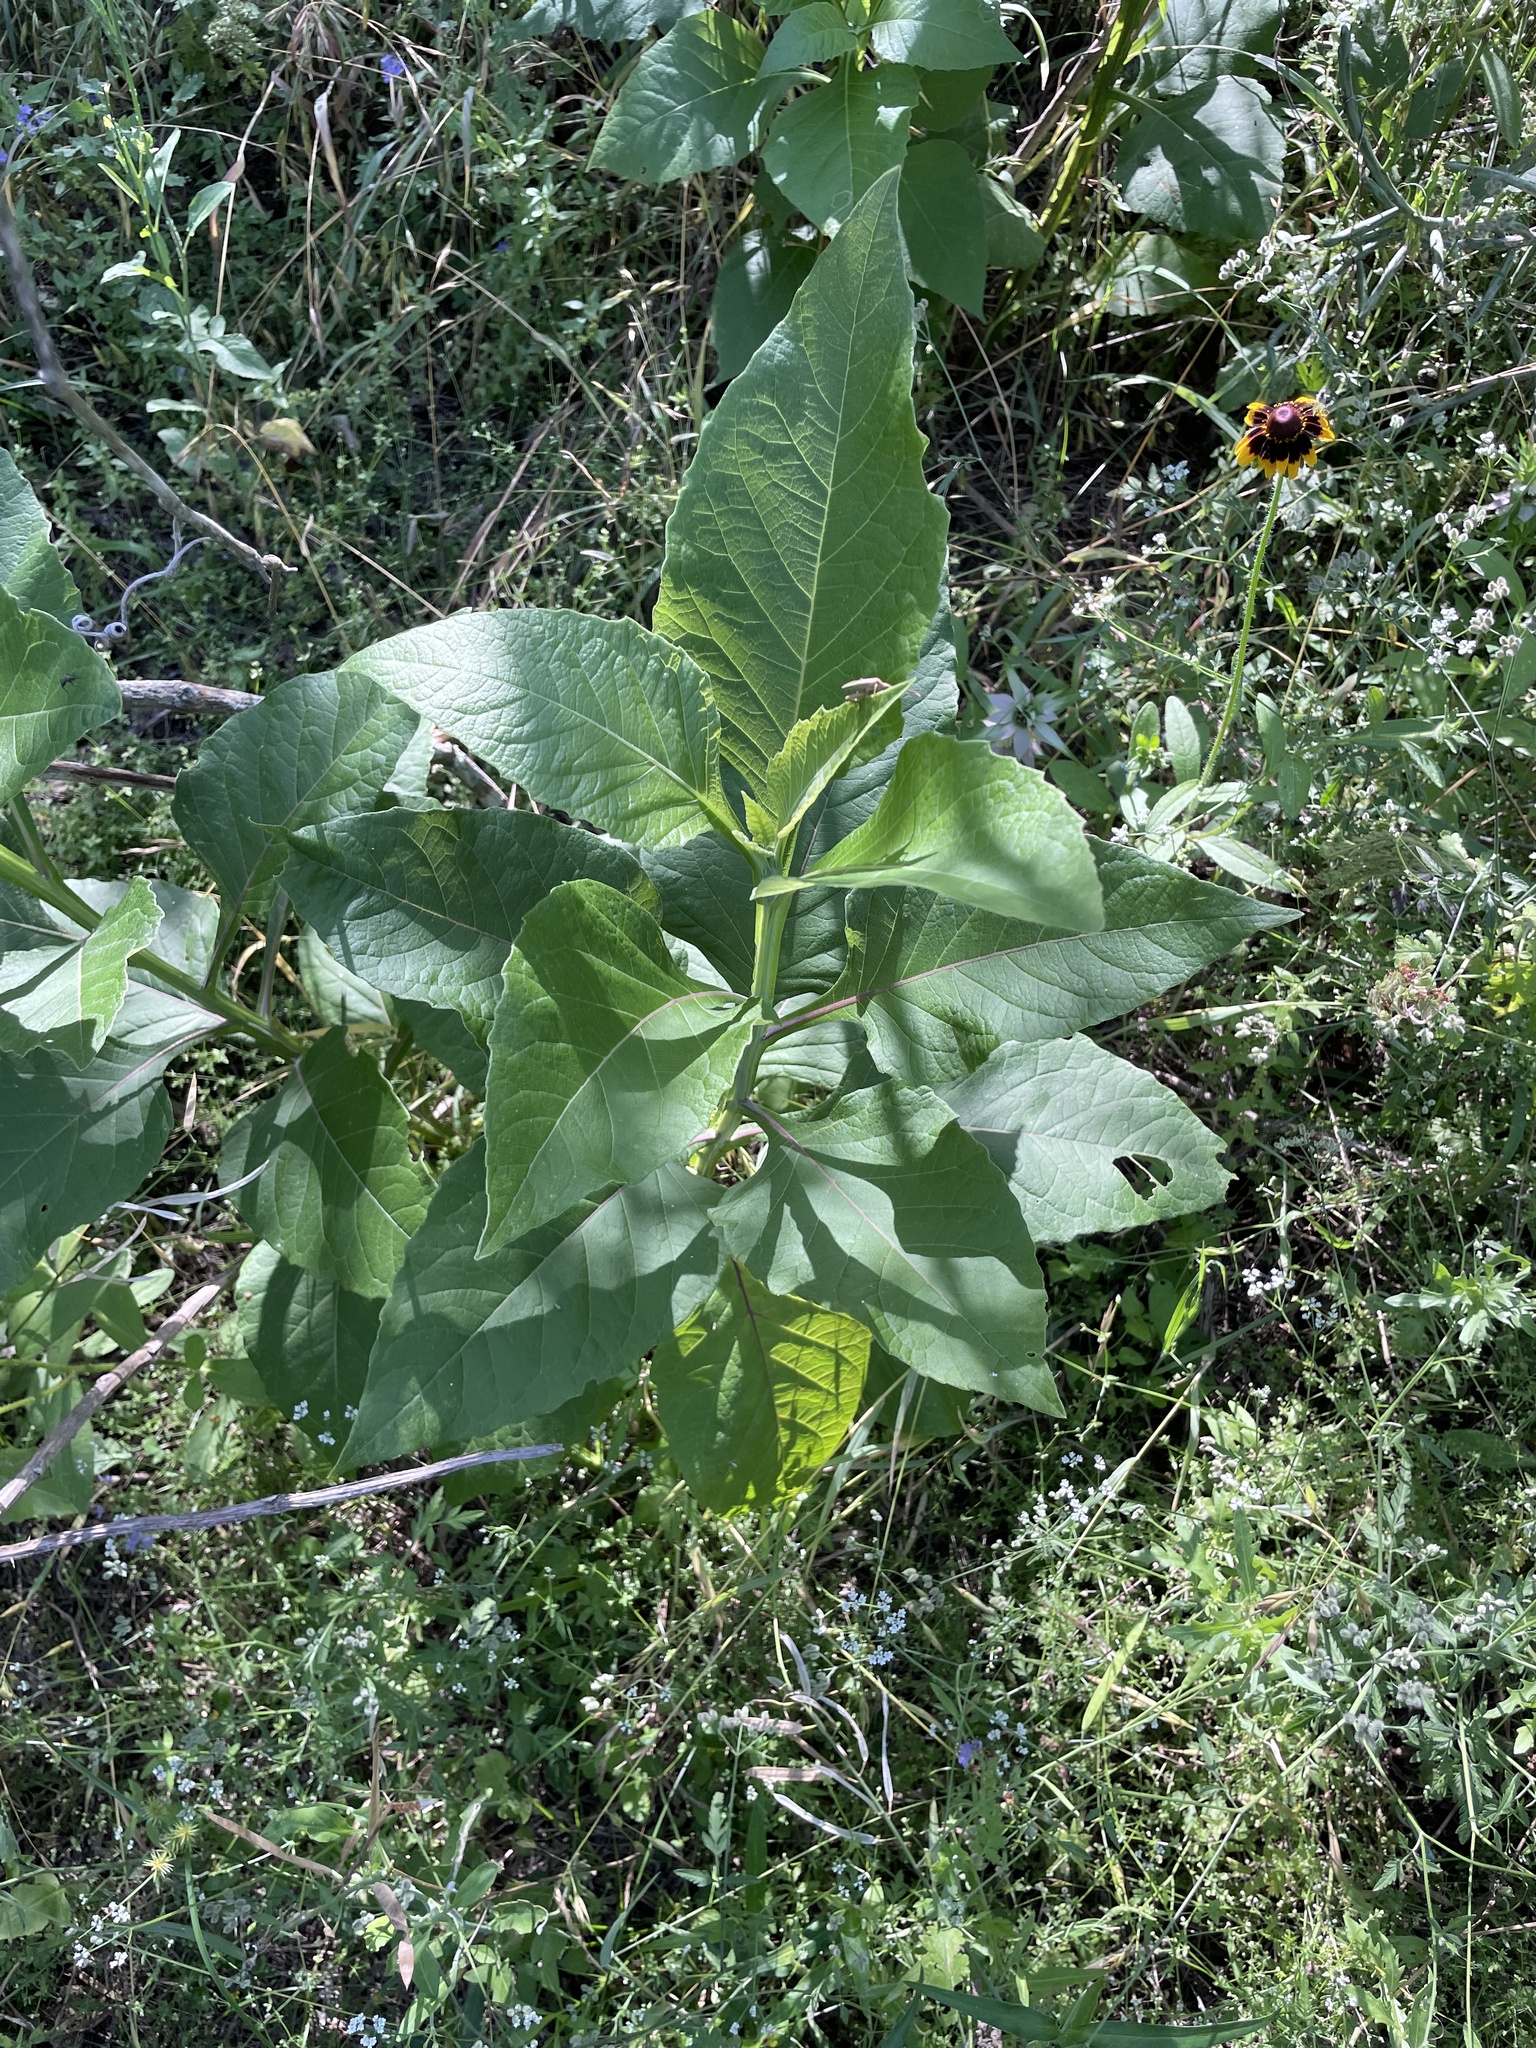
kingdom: Plantae
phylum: Tracheophyta
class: Magnoliopsida
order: Asterales
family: Asteraceae
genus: Verbesina
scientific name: Verbesina virginica
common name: Frostweed
